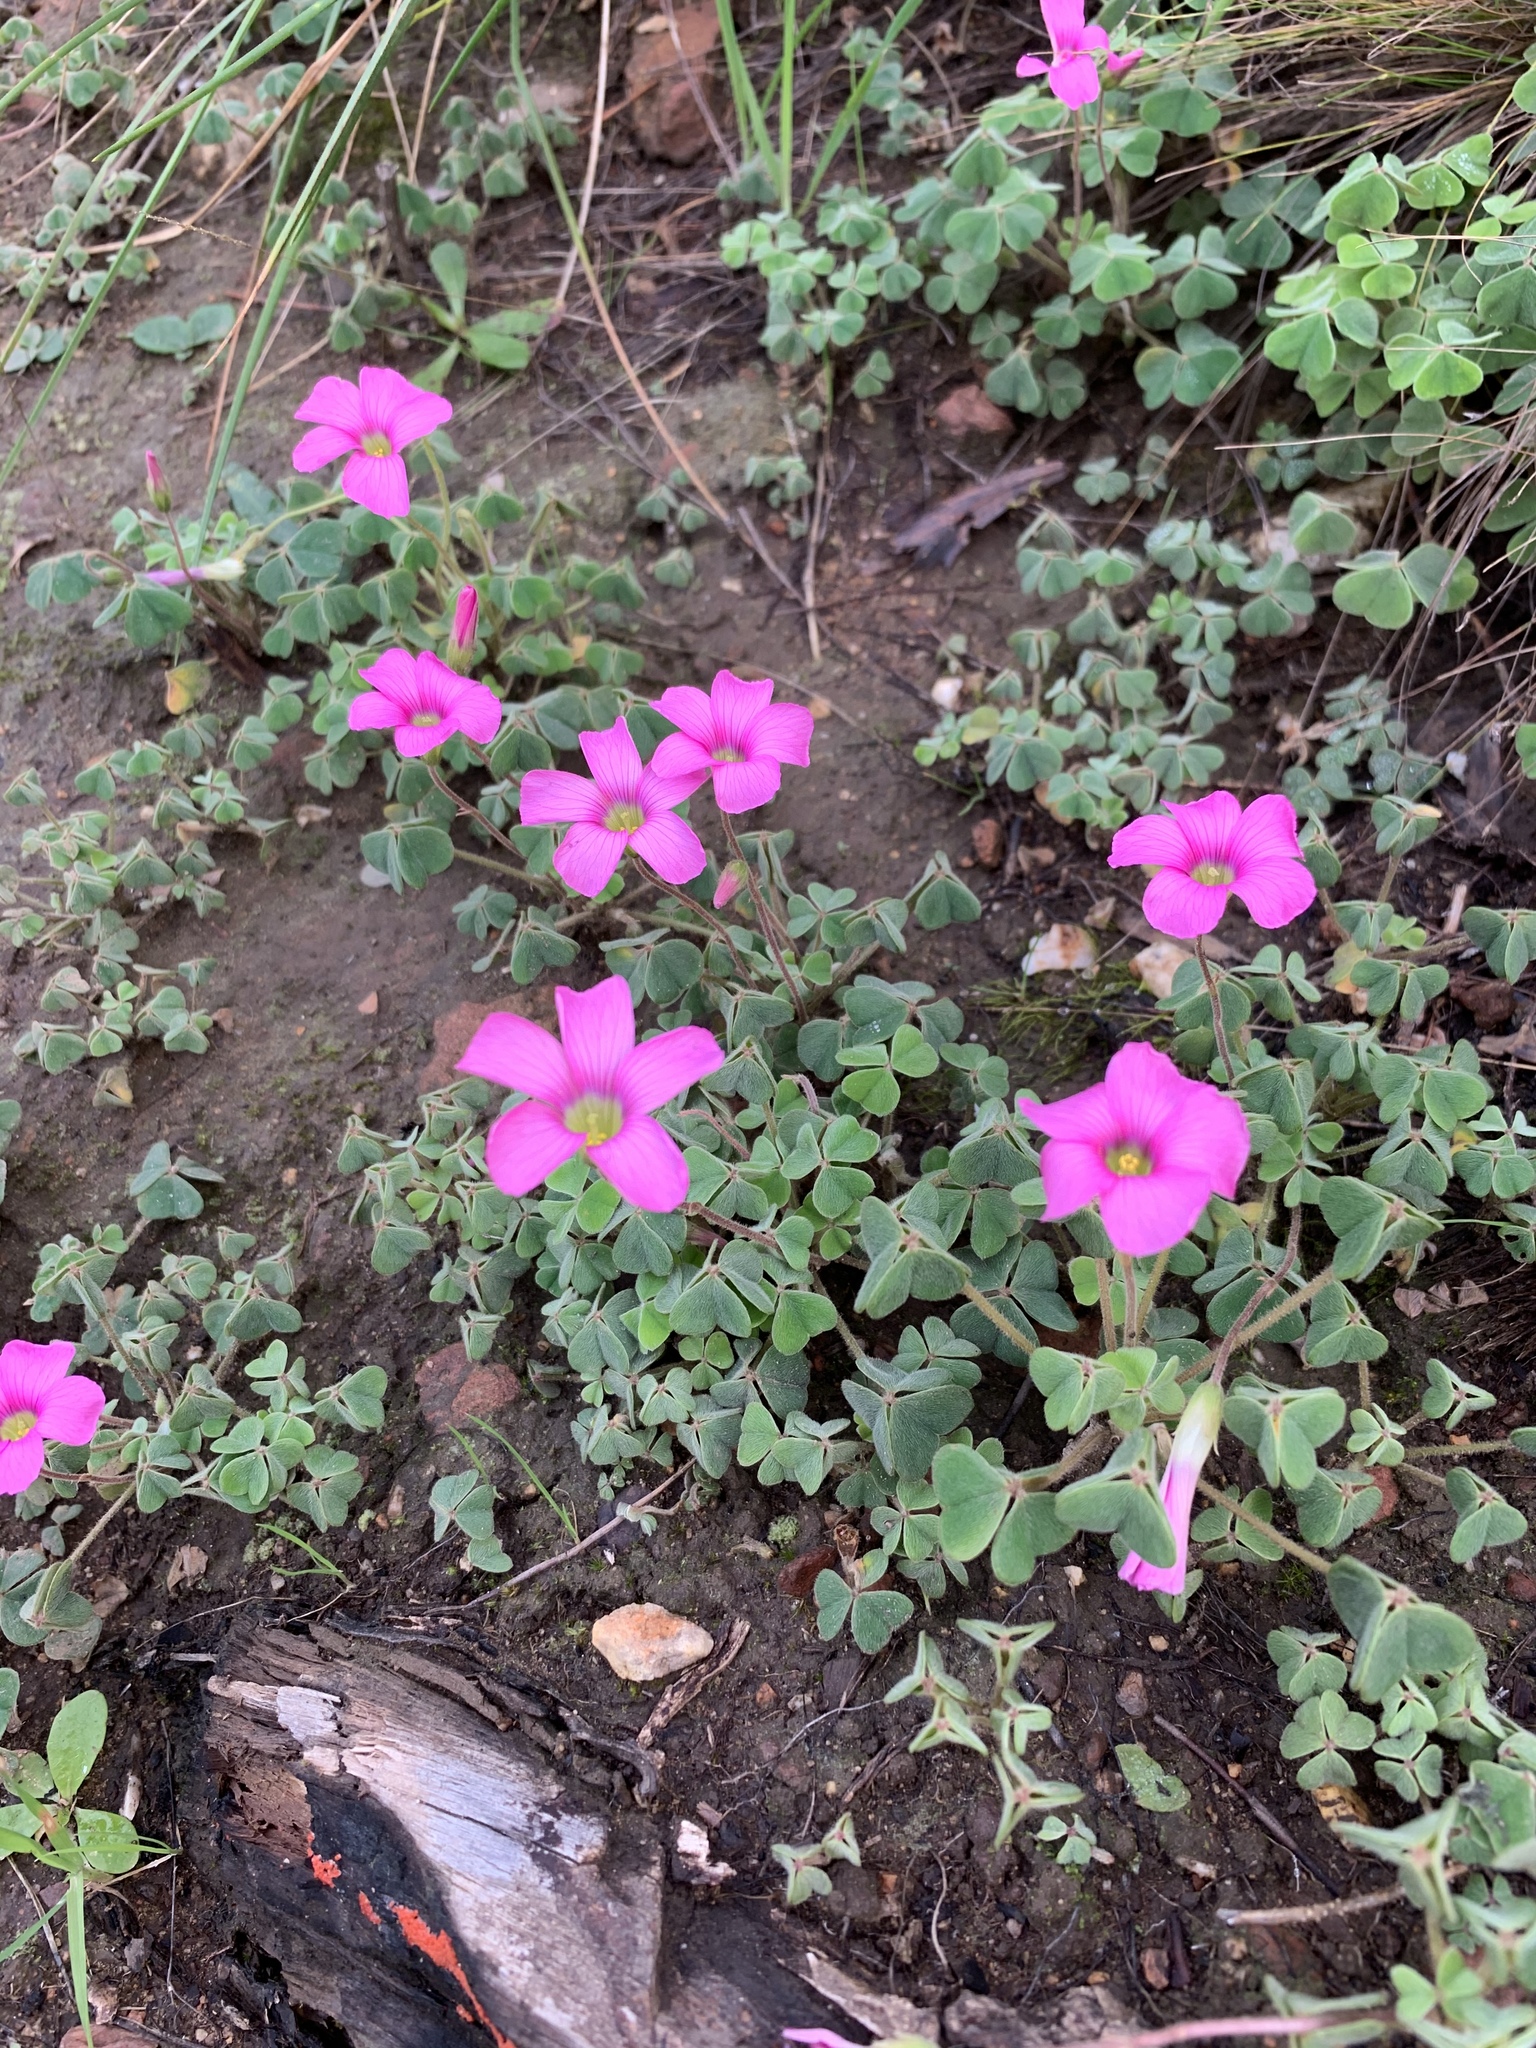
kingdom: Plantae
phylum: Tracheophyta
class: Magnoliopsida
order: Oxalidales
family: Oxalidaceae
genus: Oxalis
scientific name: Oxalis lanata
